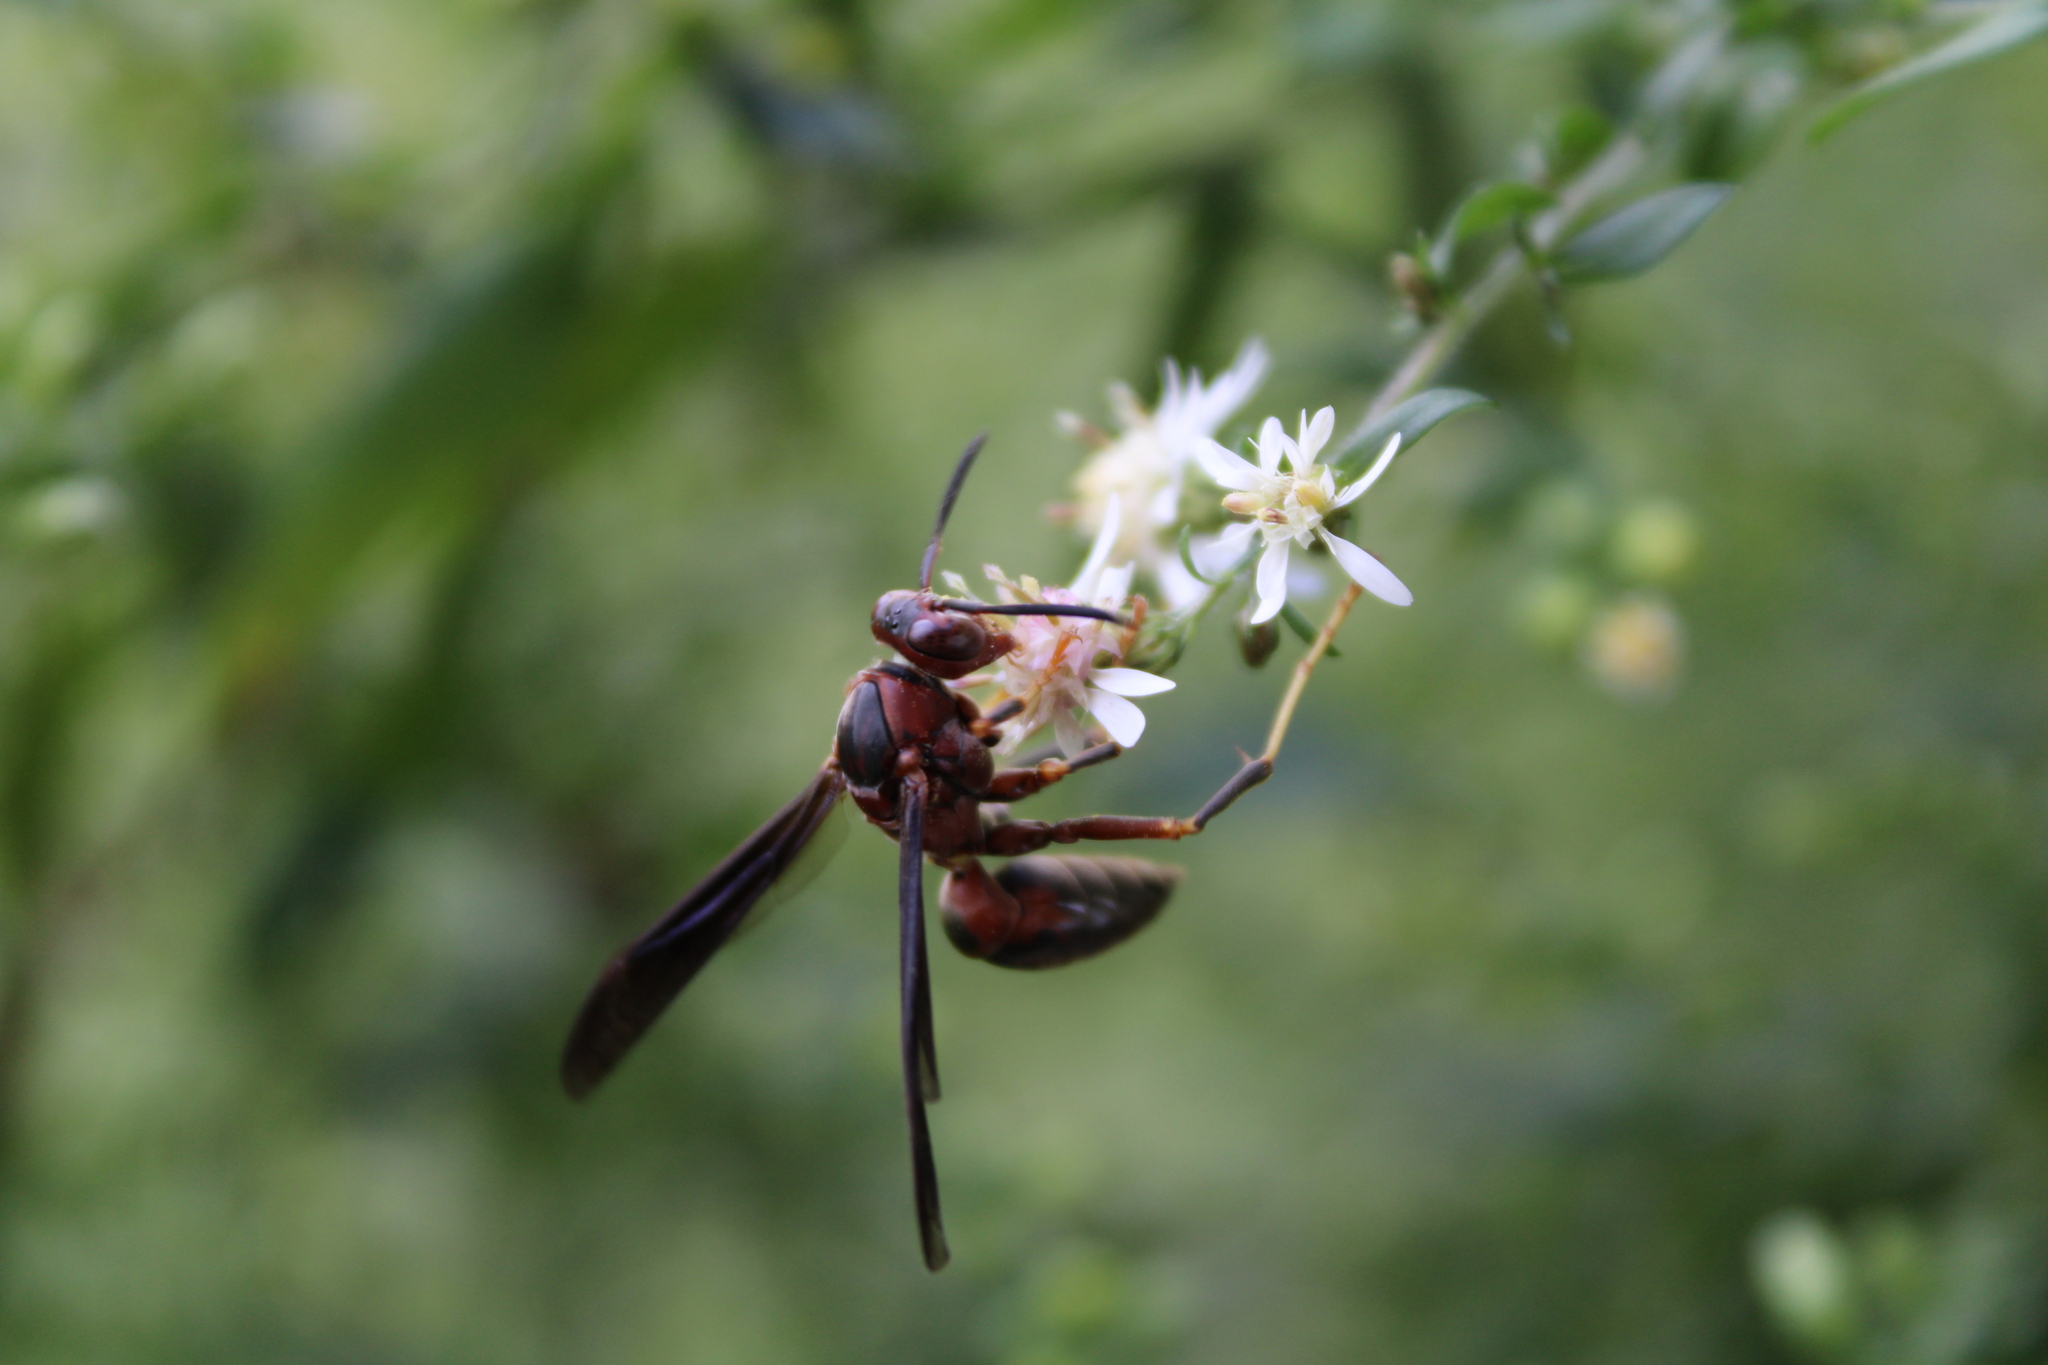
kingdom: Animalia
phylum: Arthropoda
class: Insecta
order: Hymenoptera
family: Eumenidae
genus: Polistes
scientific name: Polistes metricus
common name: Metric paper wasp
